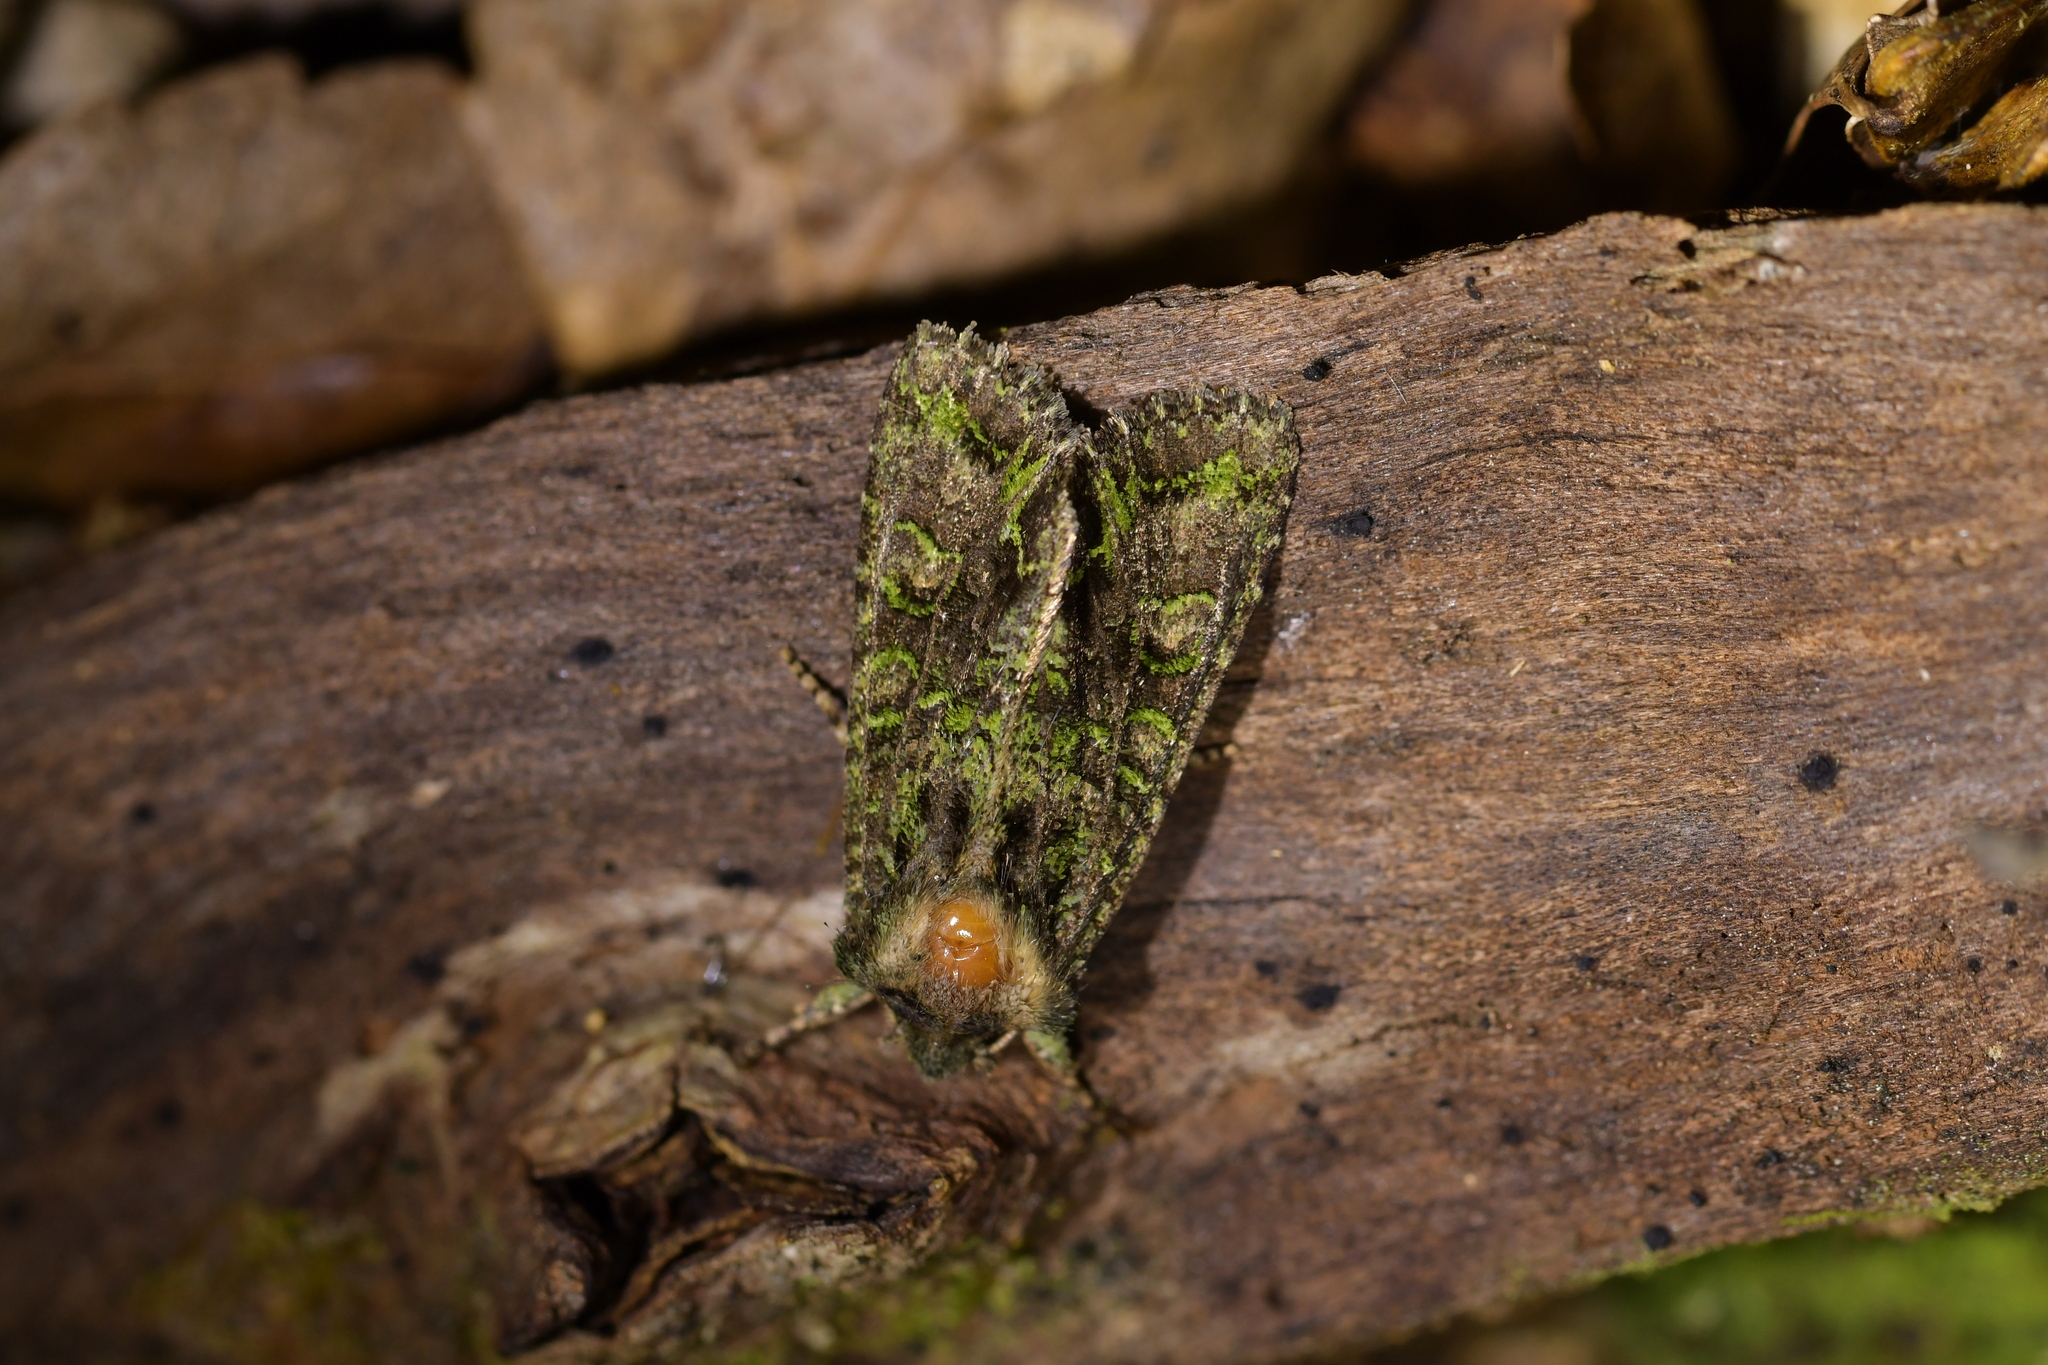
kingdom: Animalia
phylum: Arthropoda
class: Insecta
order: Lepidoptera
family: Noctuidae
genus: Ichneutica
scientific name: Ichneutica insignis
